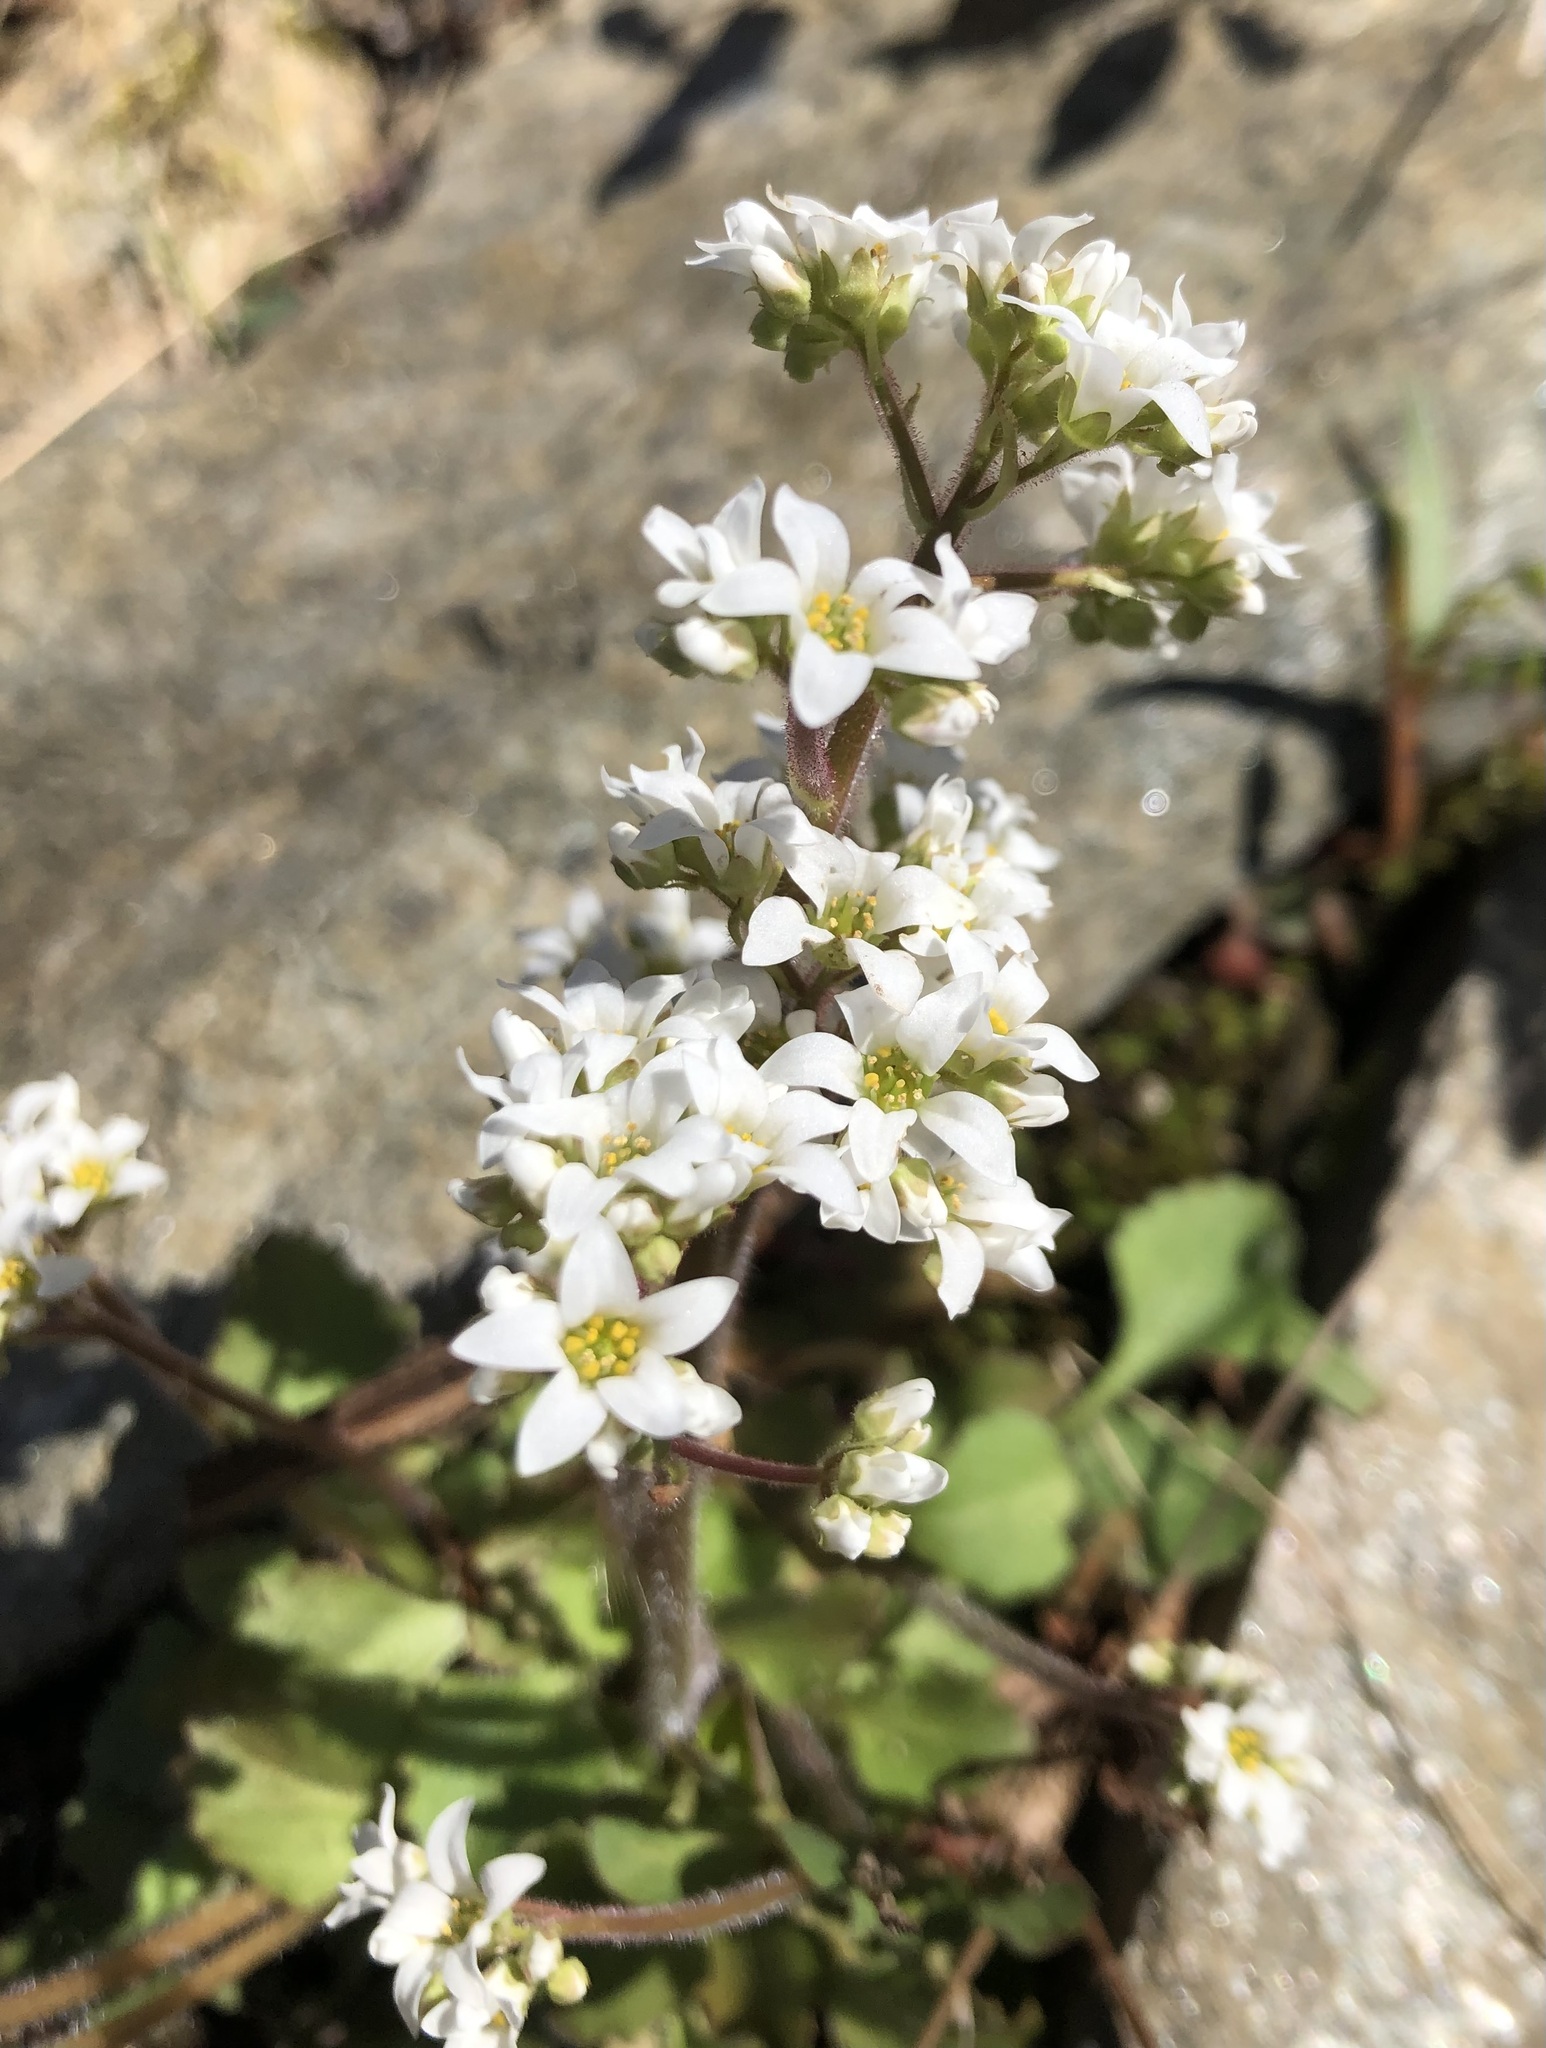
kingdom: Plantae
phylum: Tracheophyta
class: Magnoliopsida
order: Saxifragales
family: Saxifragaceae
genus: Micranthes
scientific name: Micranthes virginiensis
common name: Early saxifrage
